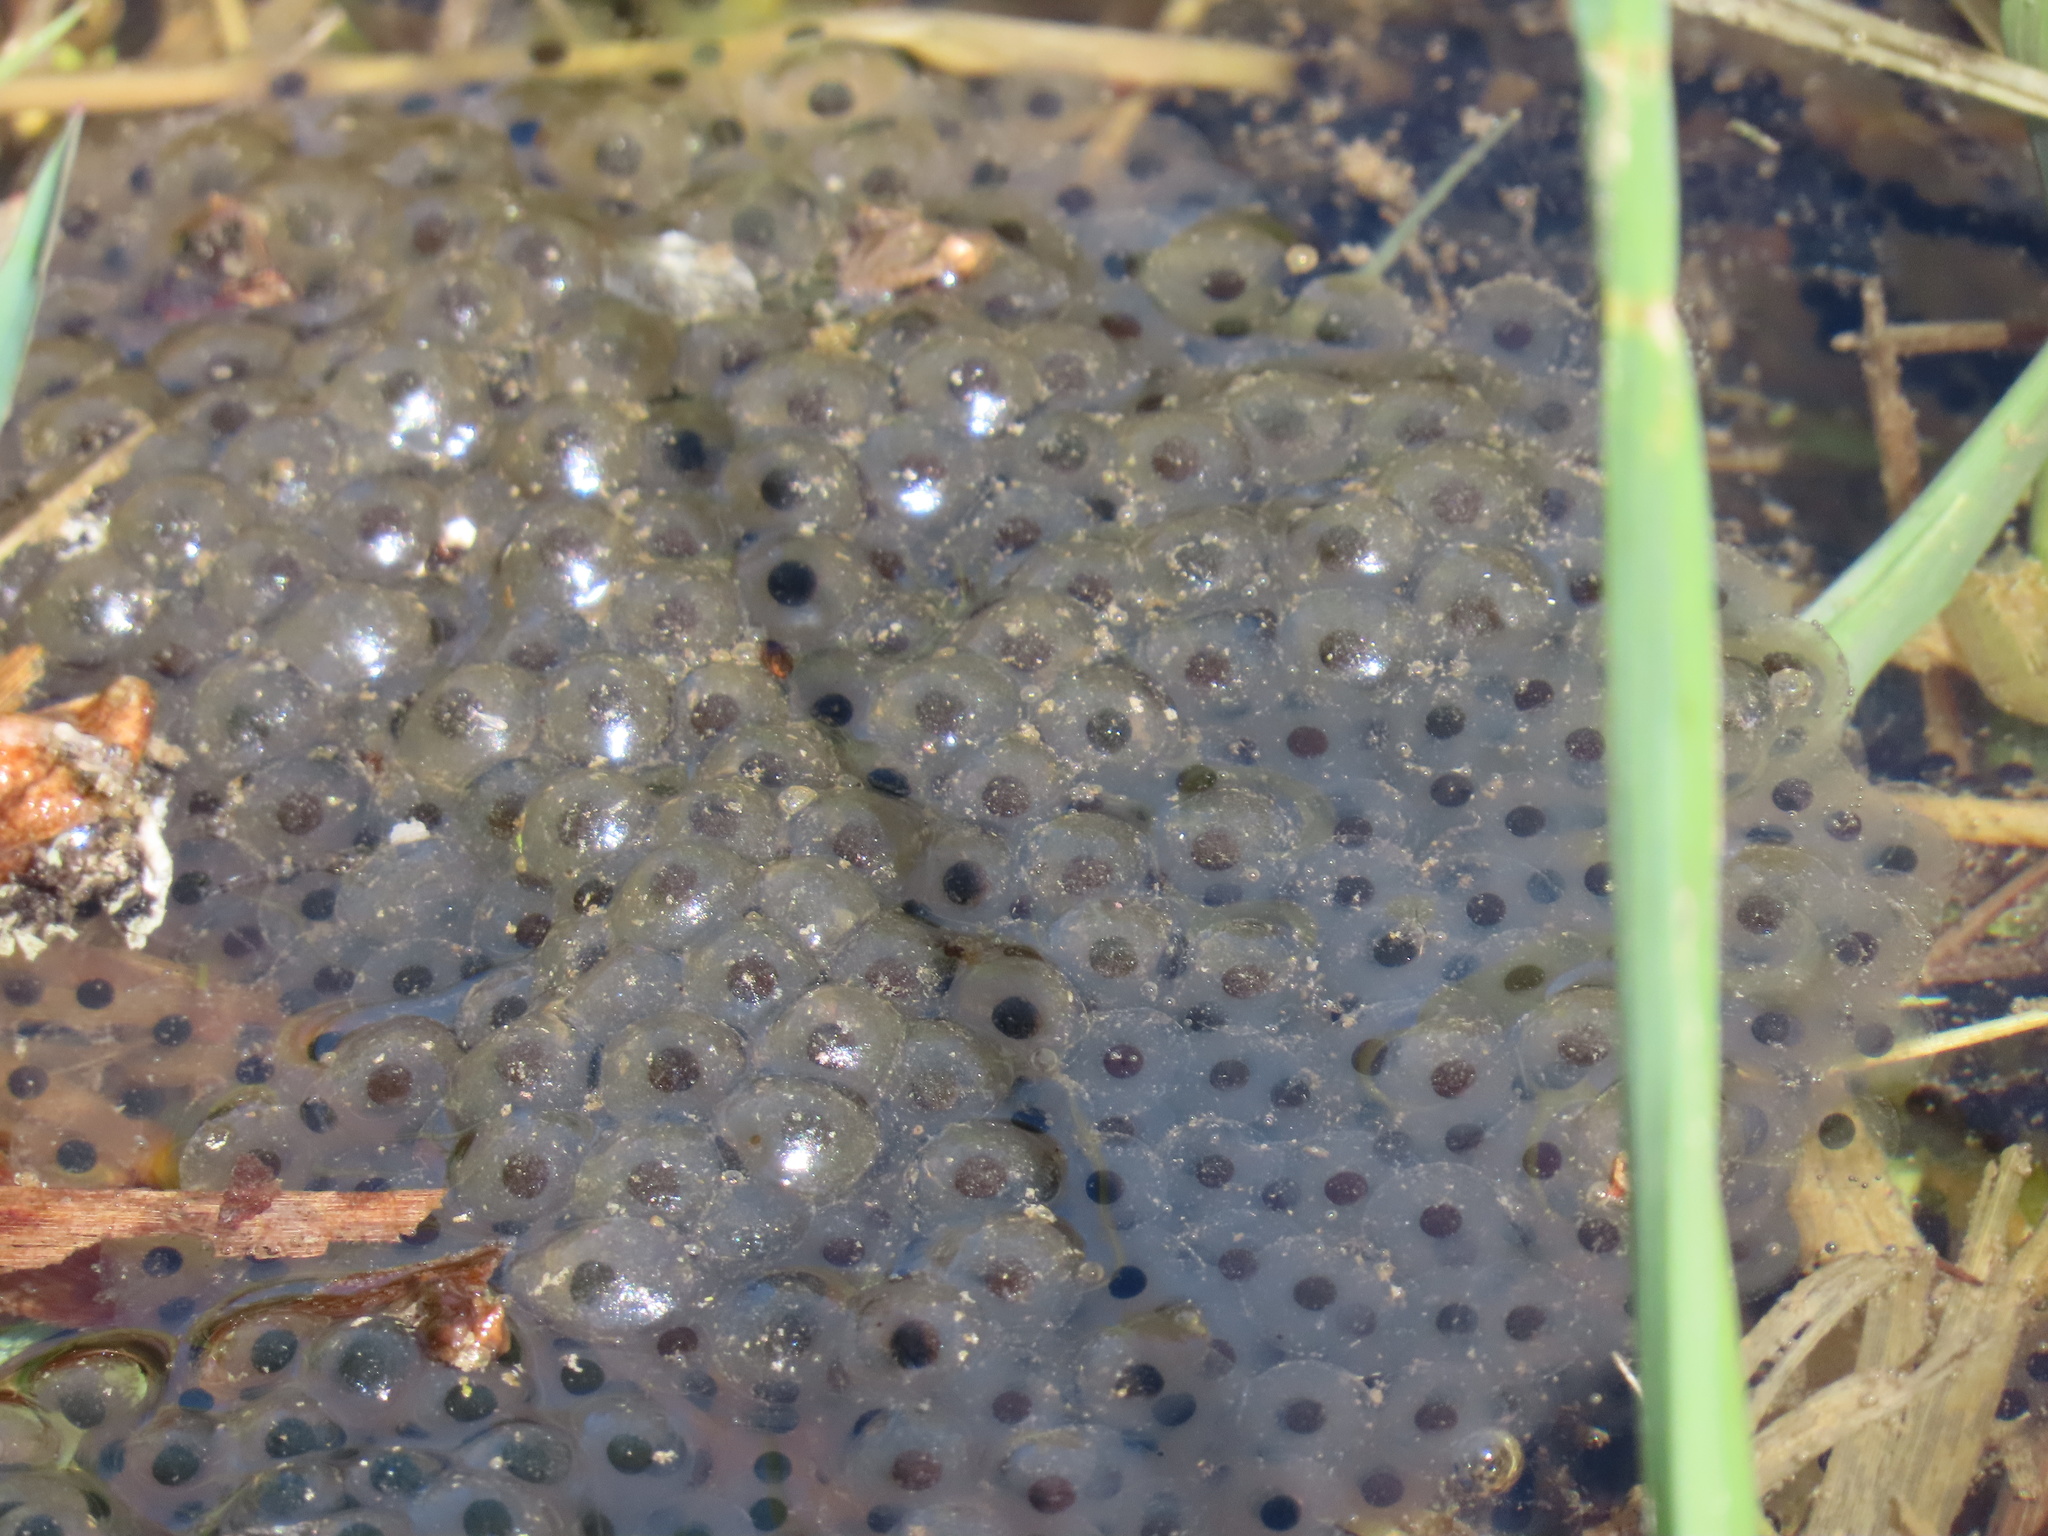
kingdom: Animalia
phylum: Chordata
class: Amphibia
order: Anura
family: Ranidae
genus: Rana
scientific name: Rana temporaria
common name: Common frog
